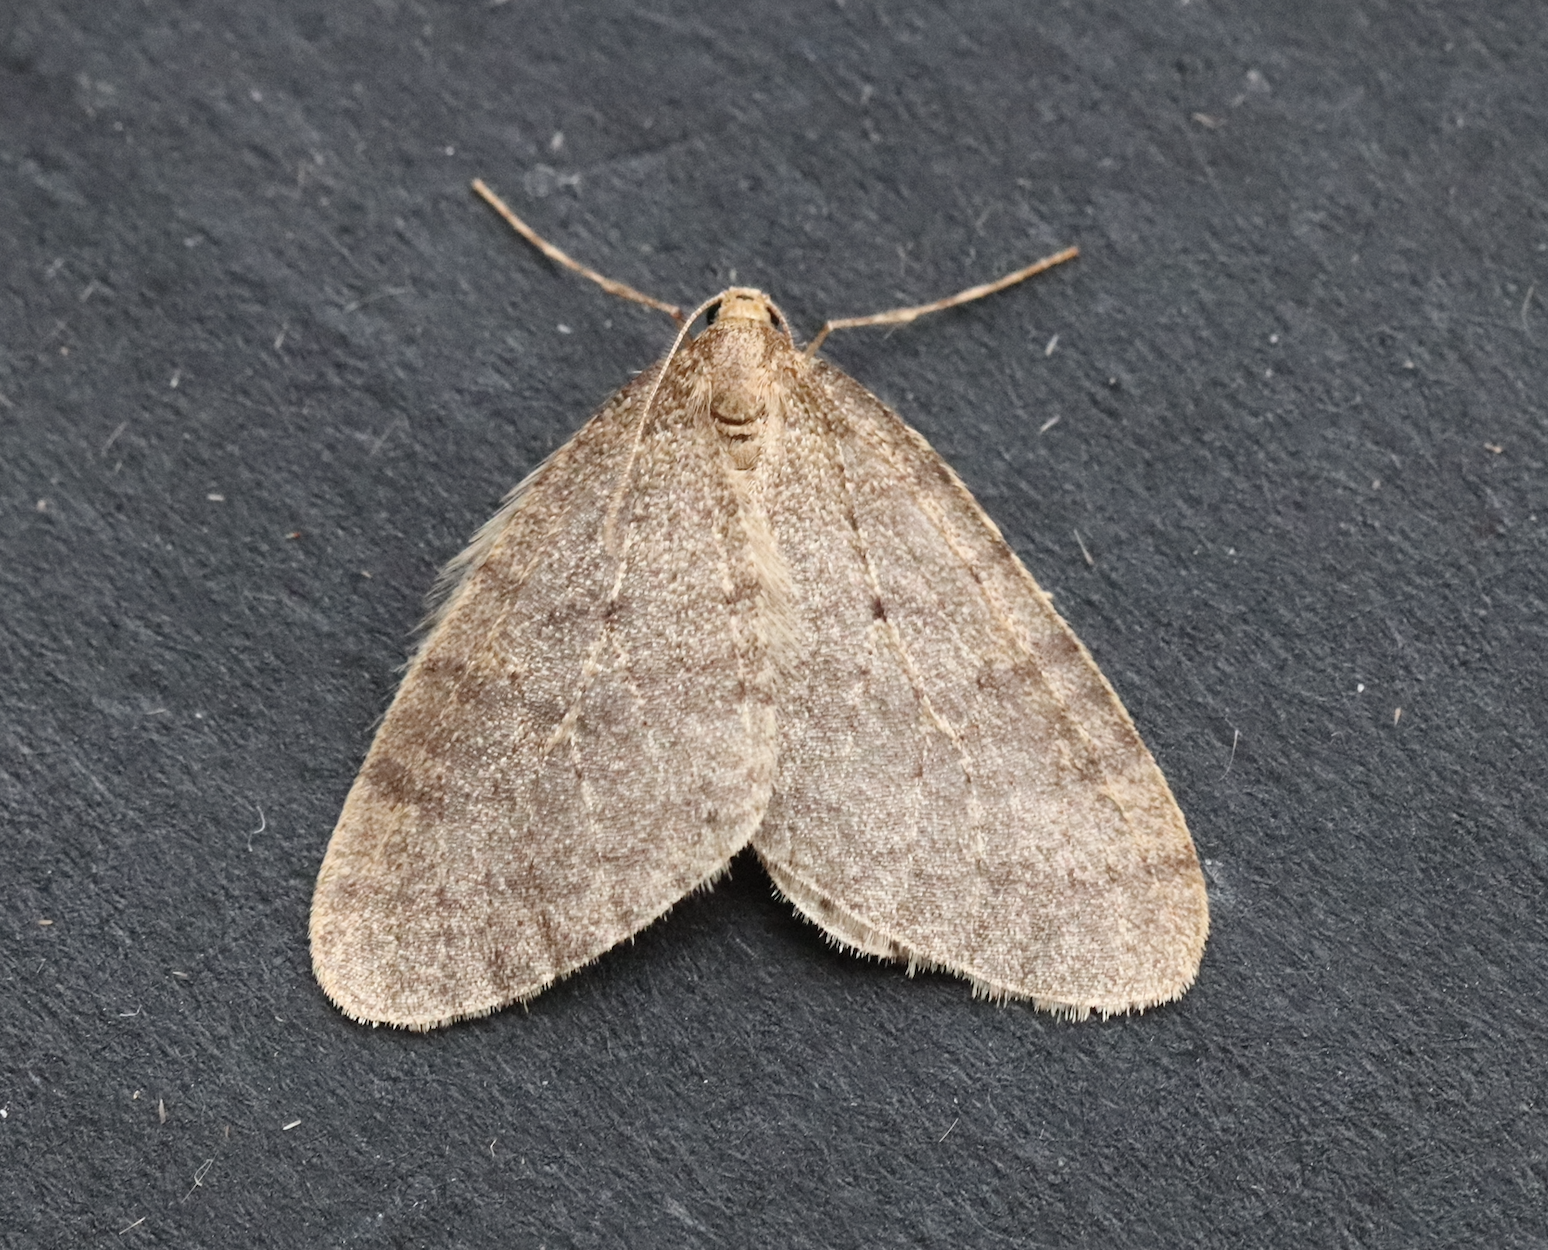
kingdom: Animalia
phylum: Arthropoda
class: Insecta
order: Lepidoptera
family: Geometridae
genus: Operophtera
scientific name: Operophtera brumata
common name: Winter moth
